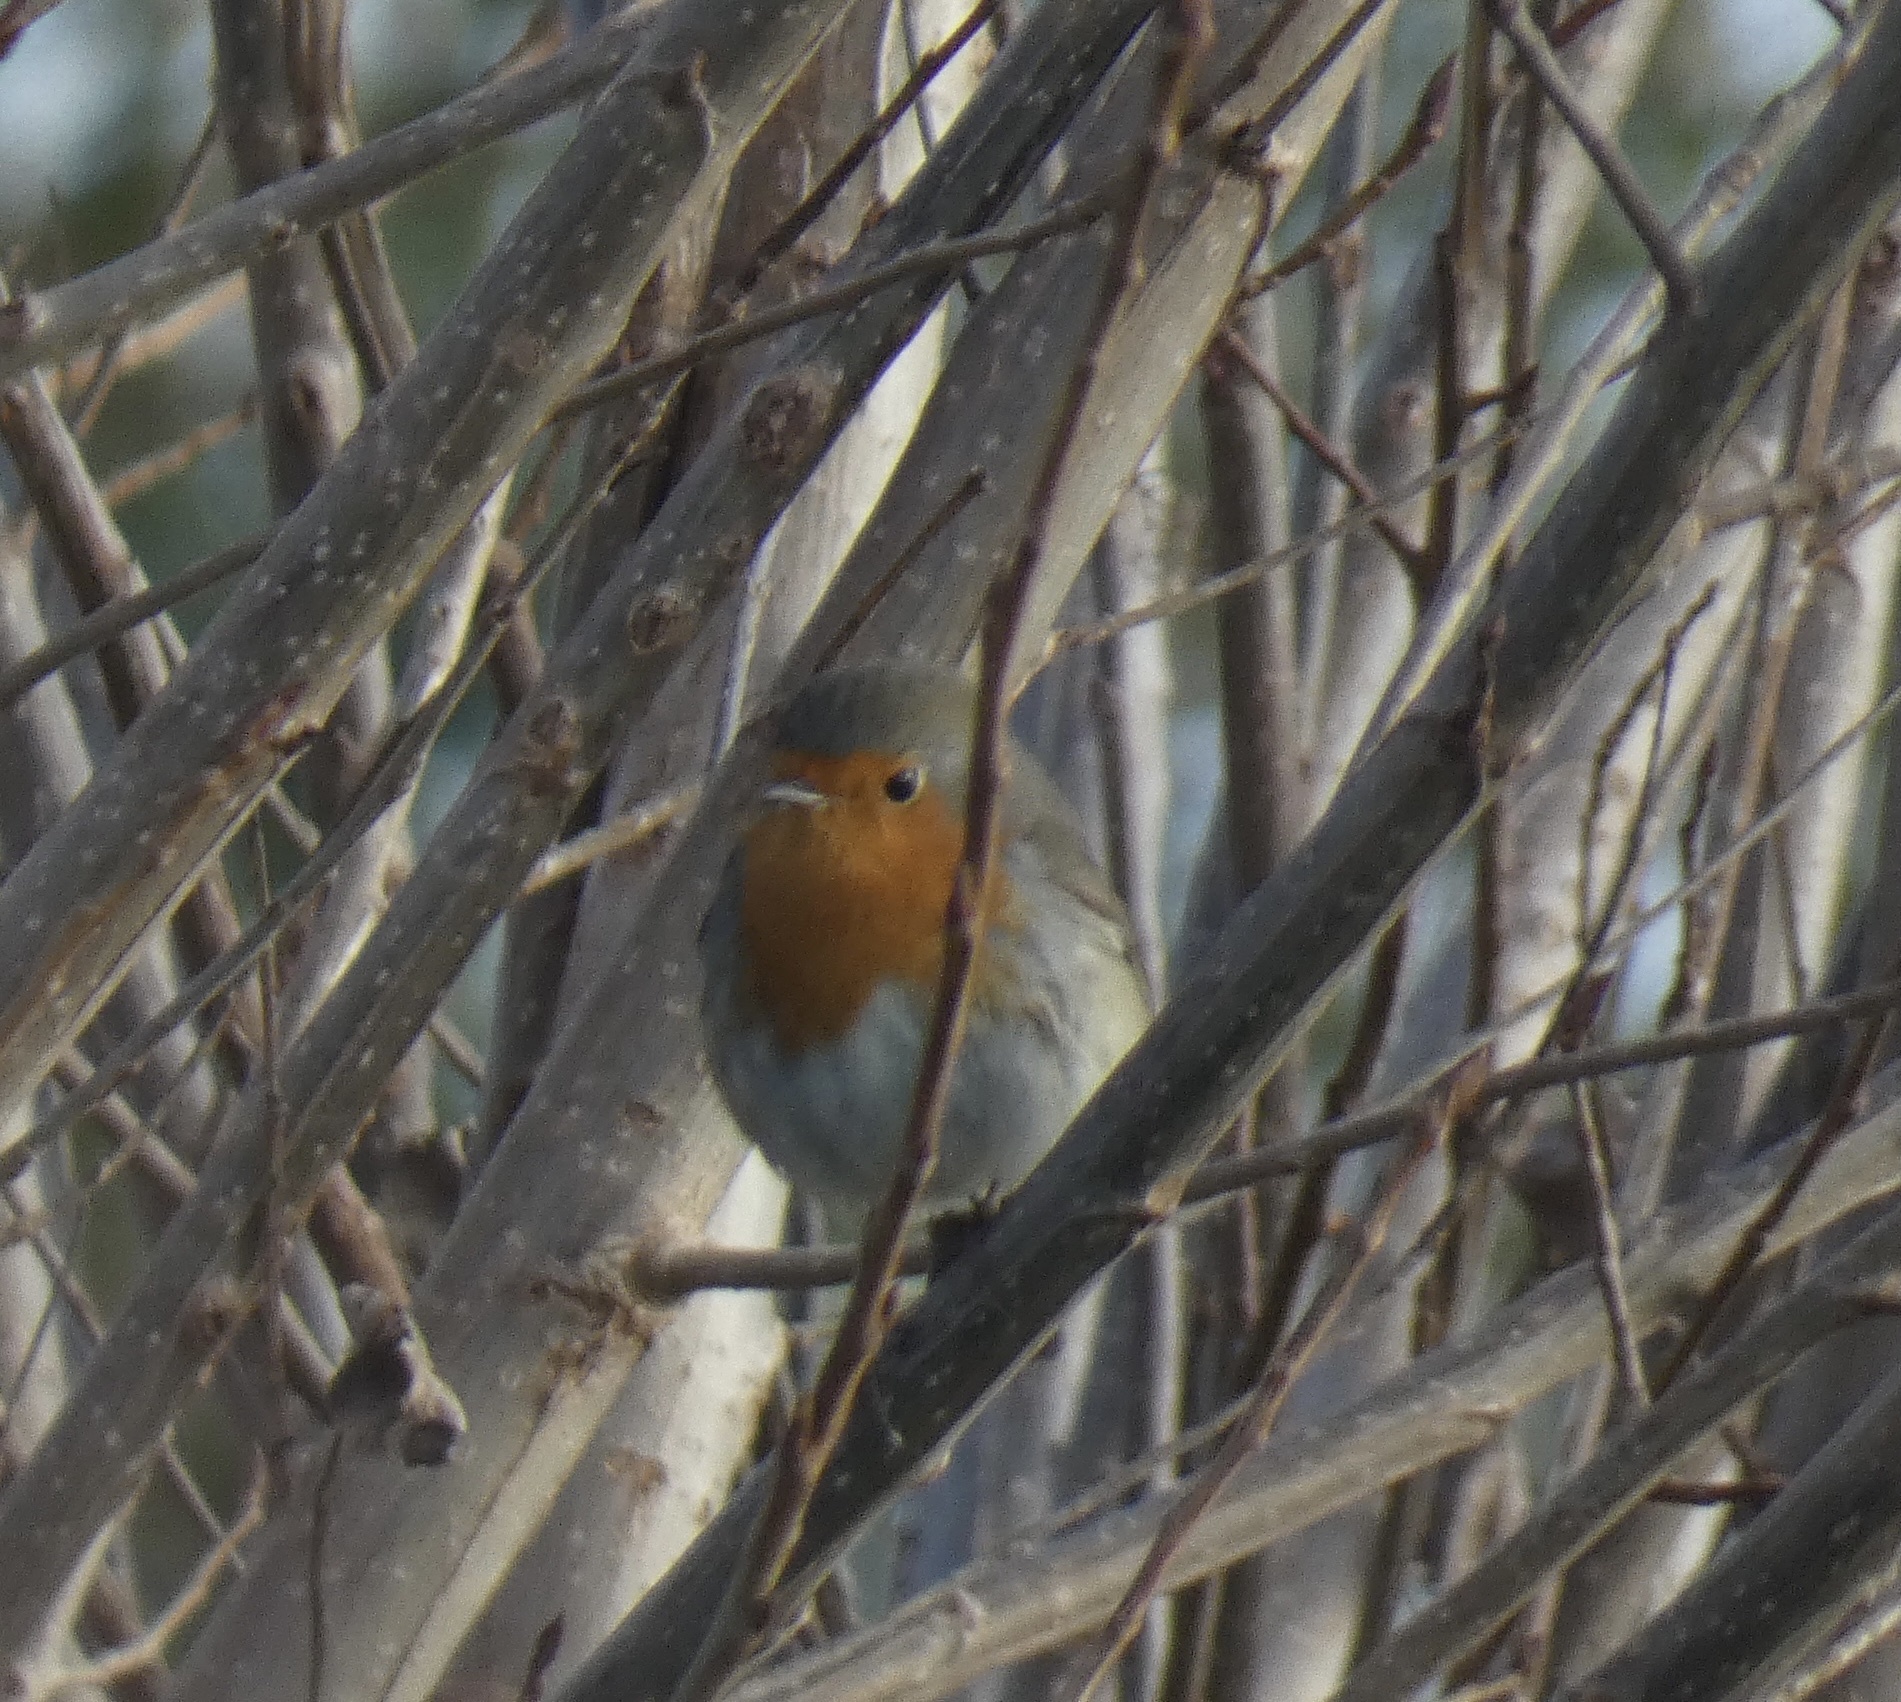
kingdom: Animalia
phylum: Chordata
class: Aves
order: Passeriformes
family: Muscicapidae
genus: Erithacus
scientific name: Erithacus rubecula
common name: European robin
